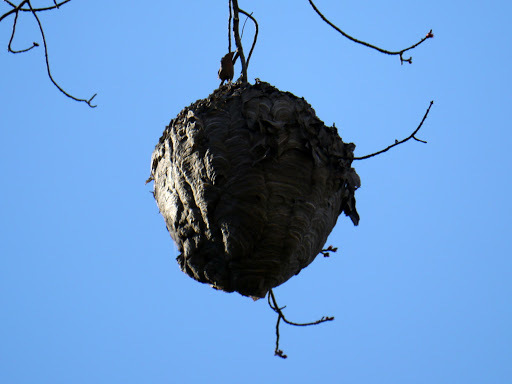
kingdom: Animalia
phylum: Arthropoda
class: Insecta
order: Hymenoptera
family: Vespidae
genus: Dolichovespula
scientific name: Dolichovespula maculata
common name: Bald-faced hornet
